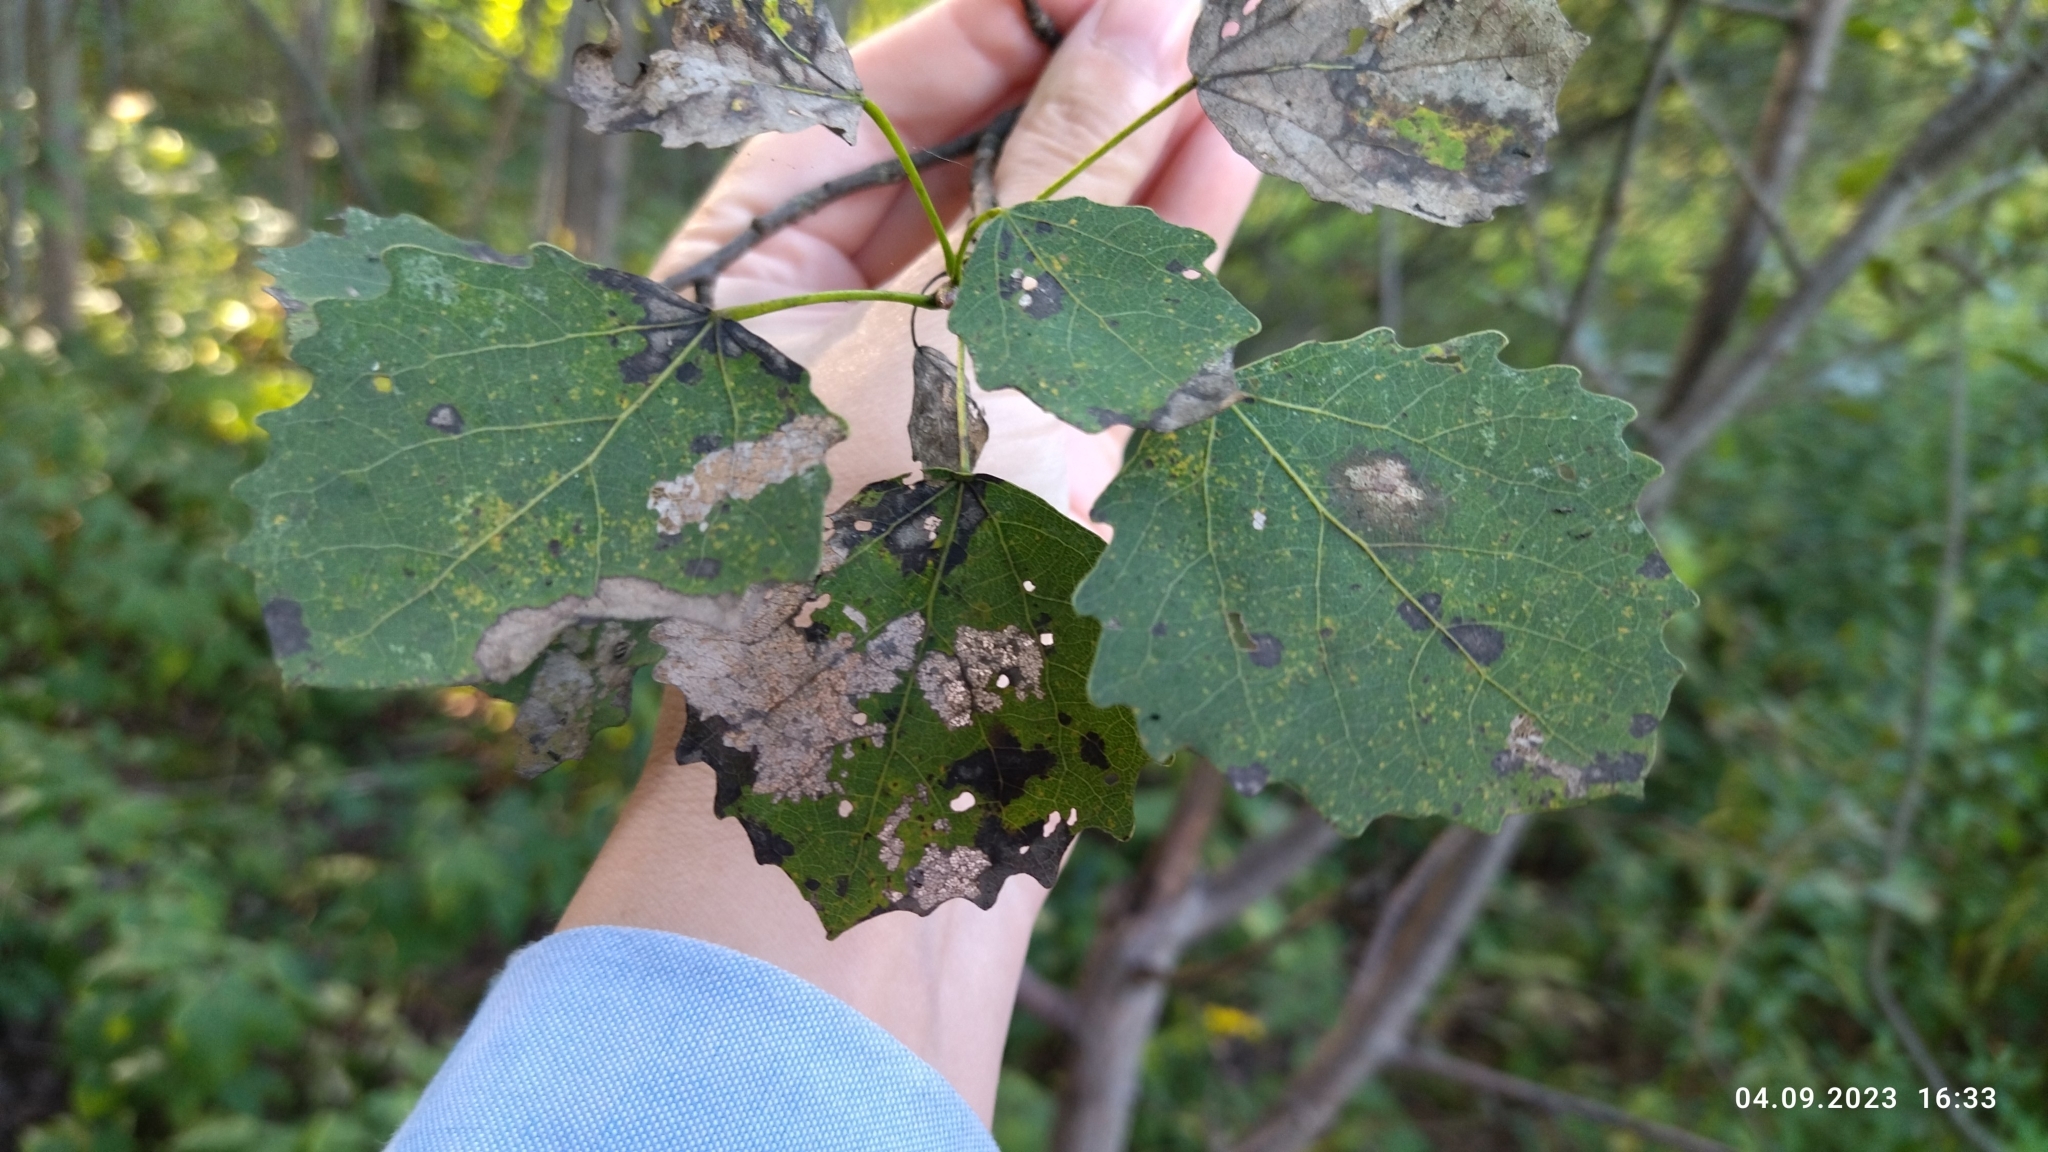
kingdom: Plantae
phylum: Tracheophyta
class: Magnoliopsida
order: Malpighiales
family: Salicaceae
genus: Populus
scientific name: Populus tremula
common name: European aspen
